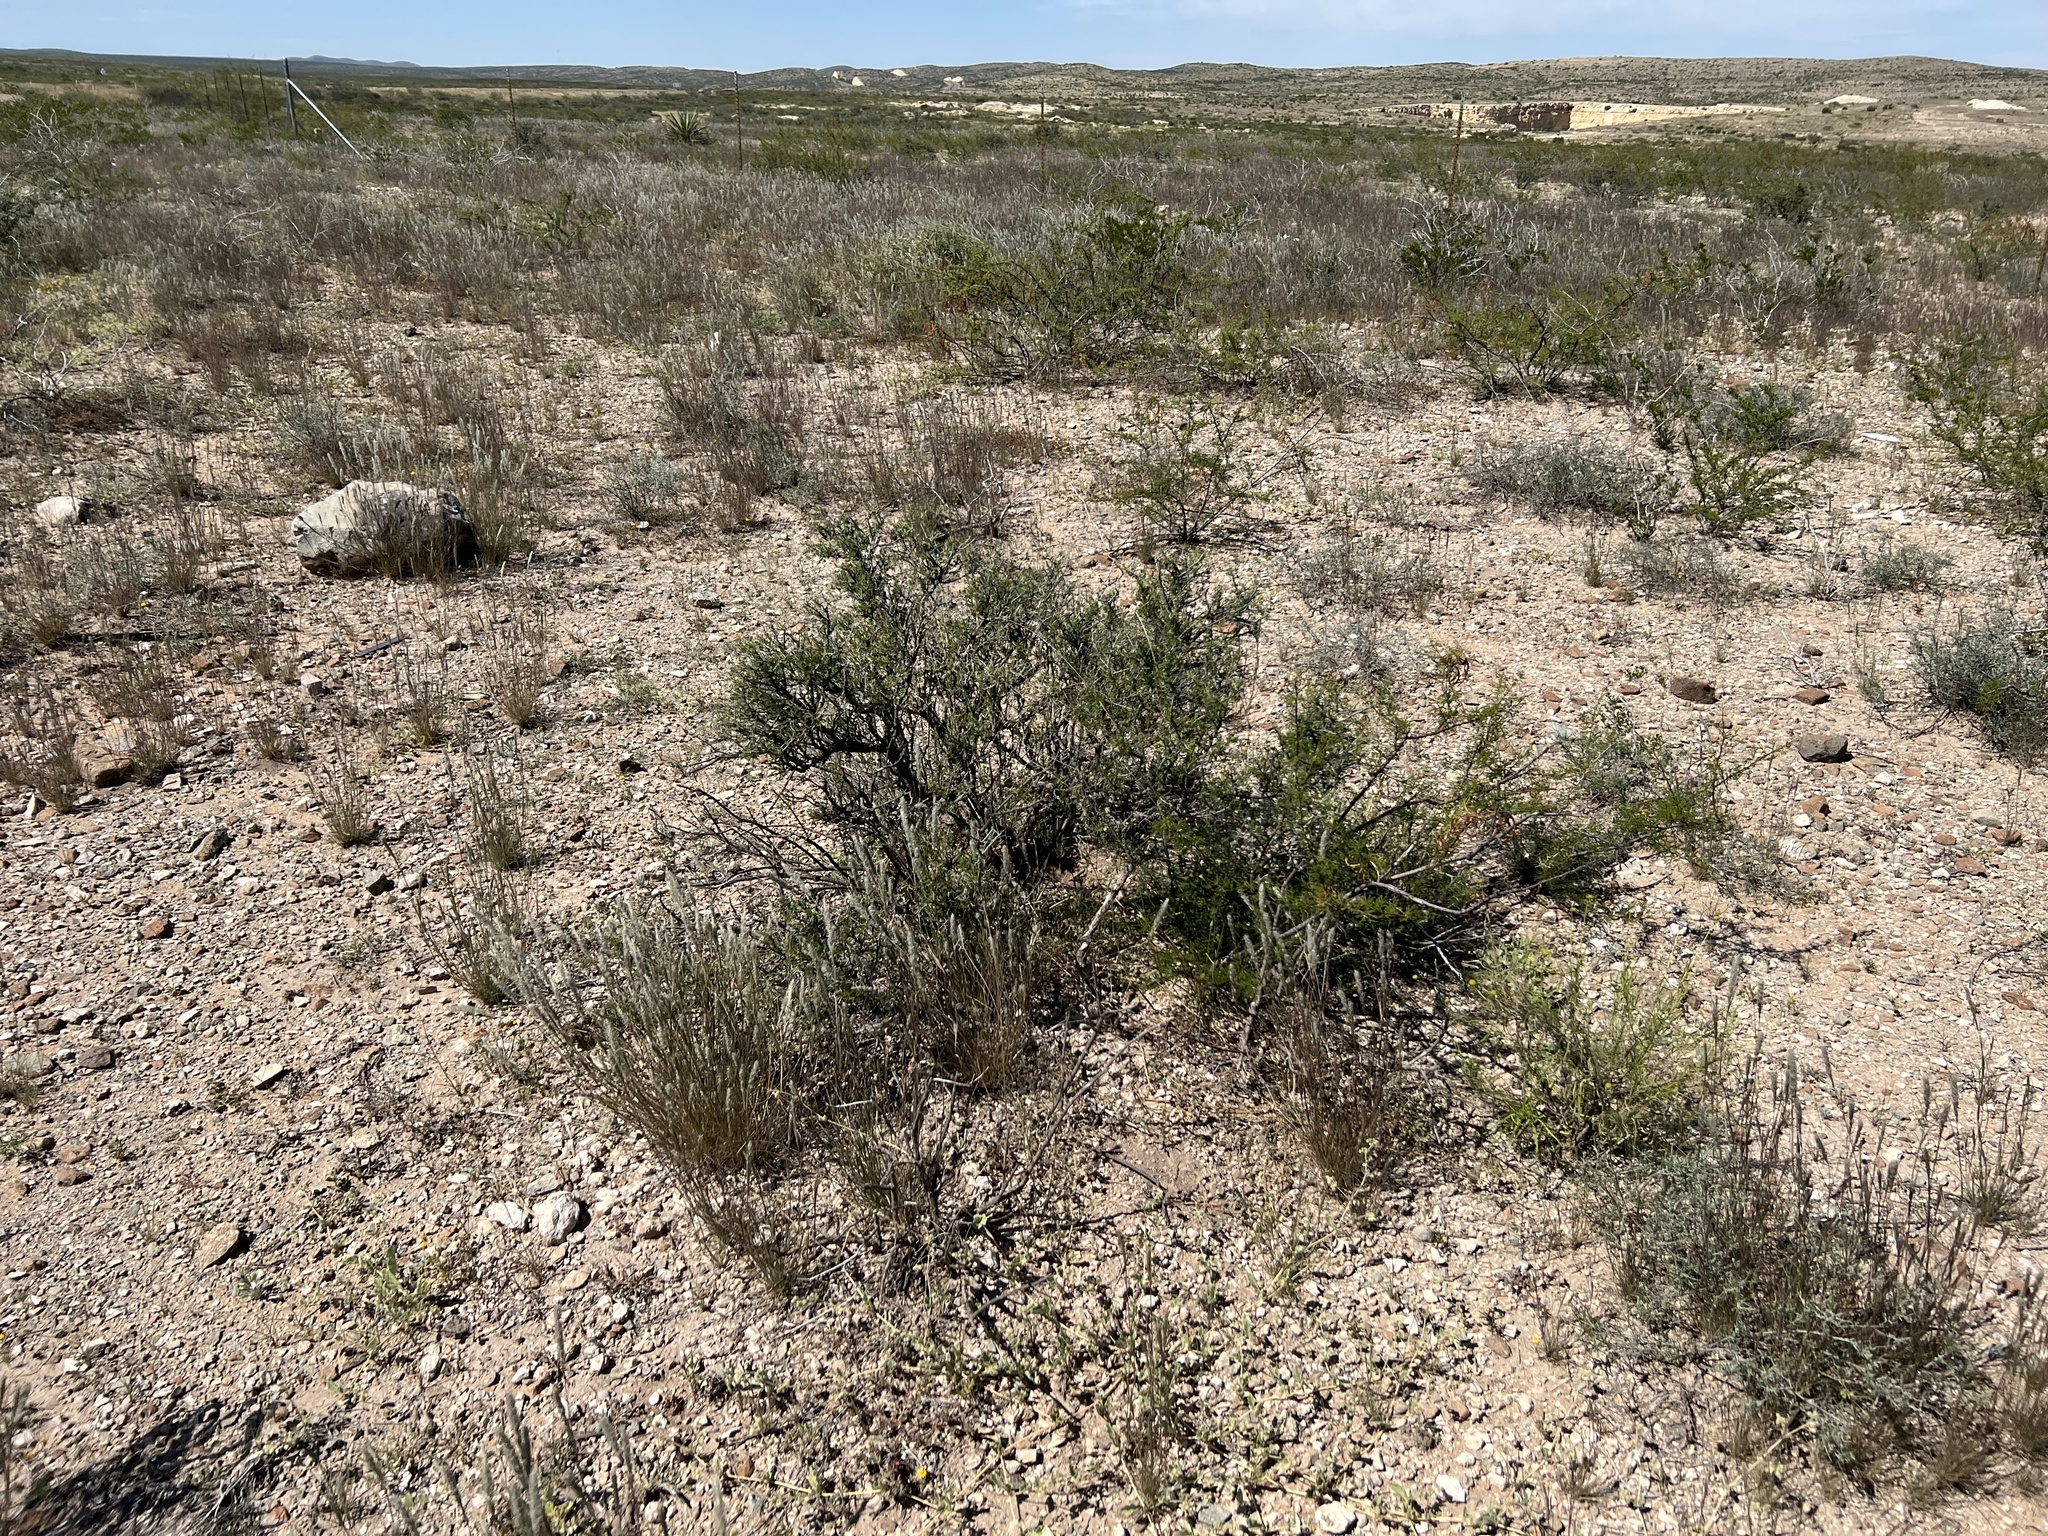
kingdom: Plantae
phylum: Tracheophyta
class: Magnoliopsida
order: Rosales
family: Rhamnaceae
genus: Condalia
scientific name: Condalia ericoides
